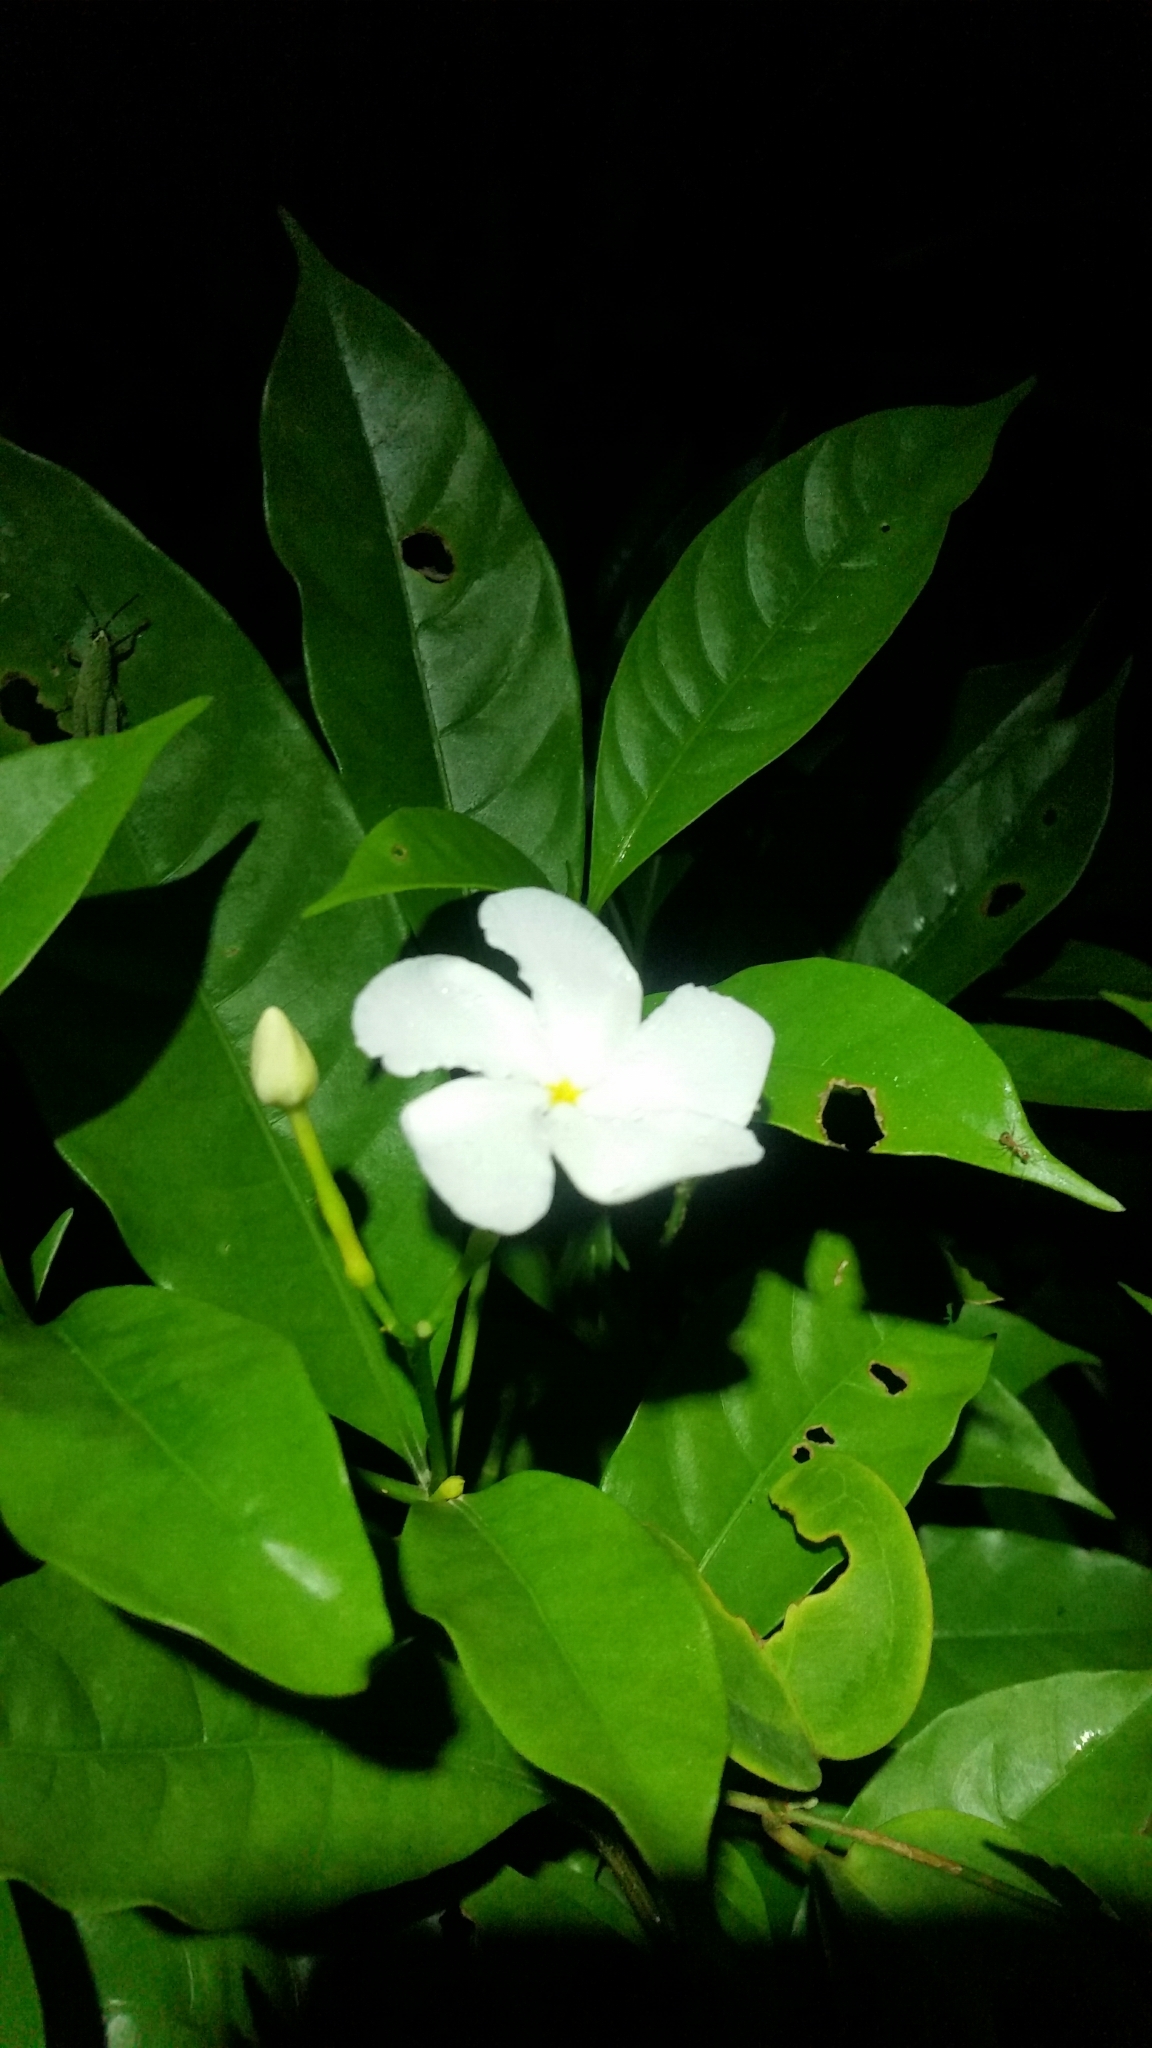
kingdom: Plantae
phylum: Tracheophyta
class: Magnoliopsida
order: Gentianales
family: Apocynaceae
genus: Tabernaemontana
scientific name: Tabernaemontana divaricata
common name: Pinwheelflower
